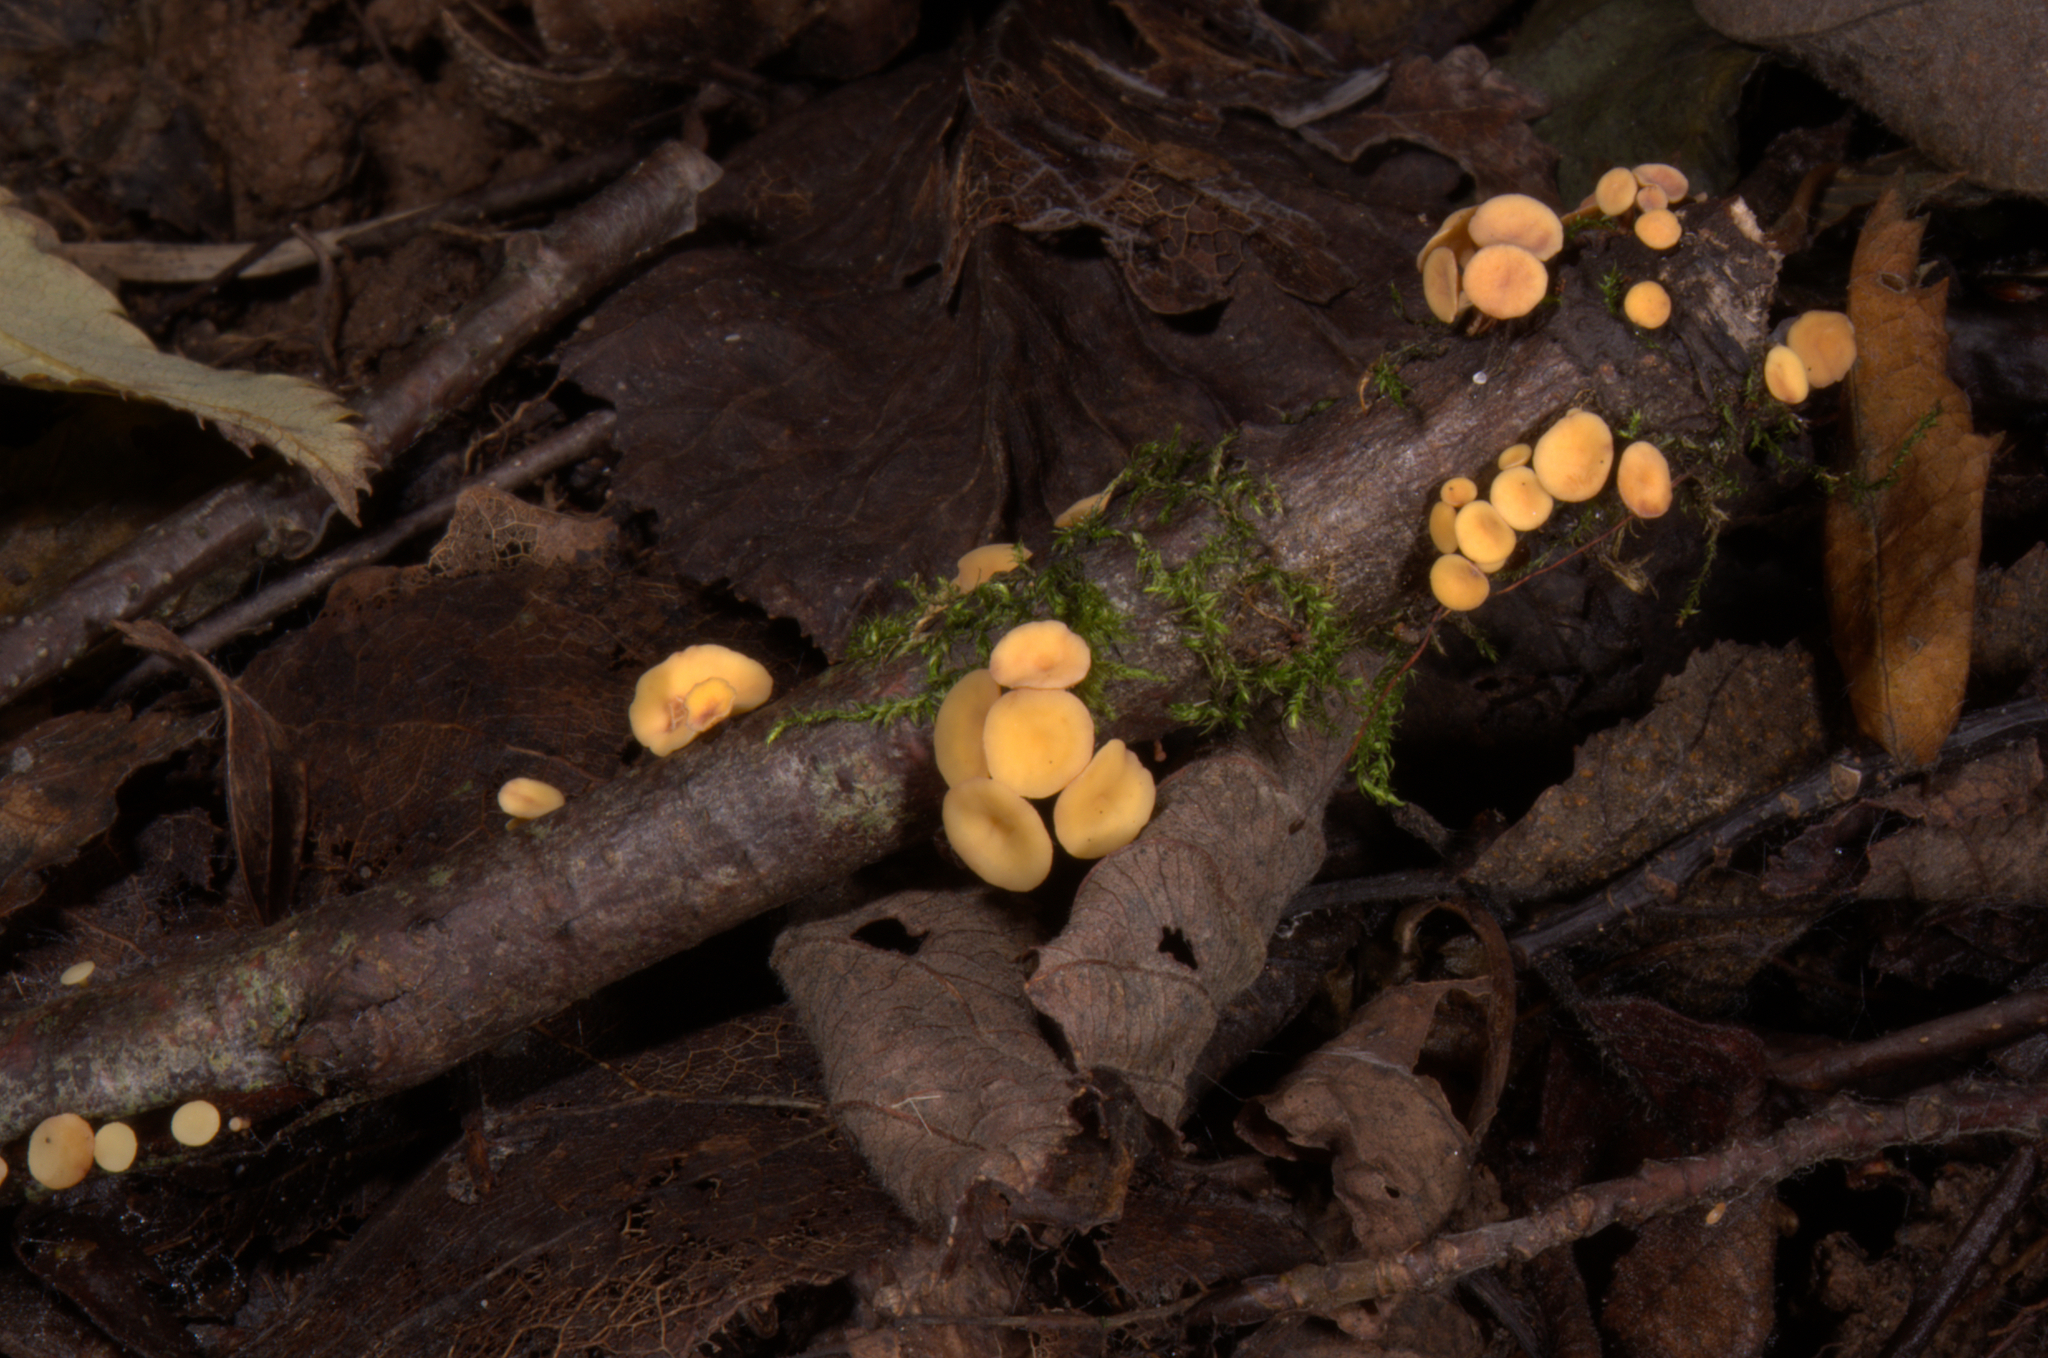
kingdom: Fungi
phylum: Ascomycota
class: Leotiomycetes
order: Helotiales
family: Helotiaceae
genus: Hymenoscyphus
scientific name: Hymenoscyphus calyculus
